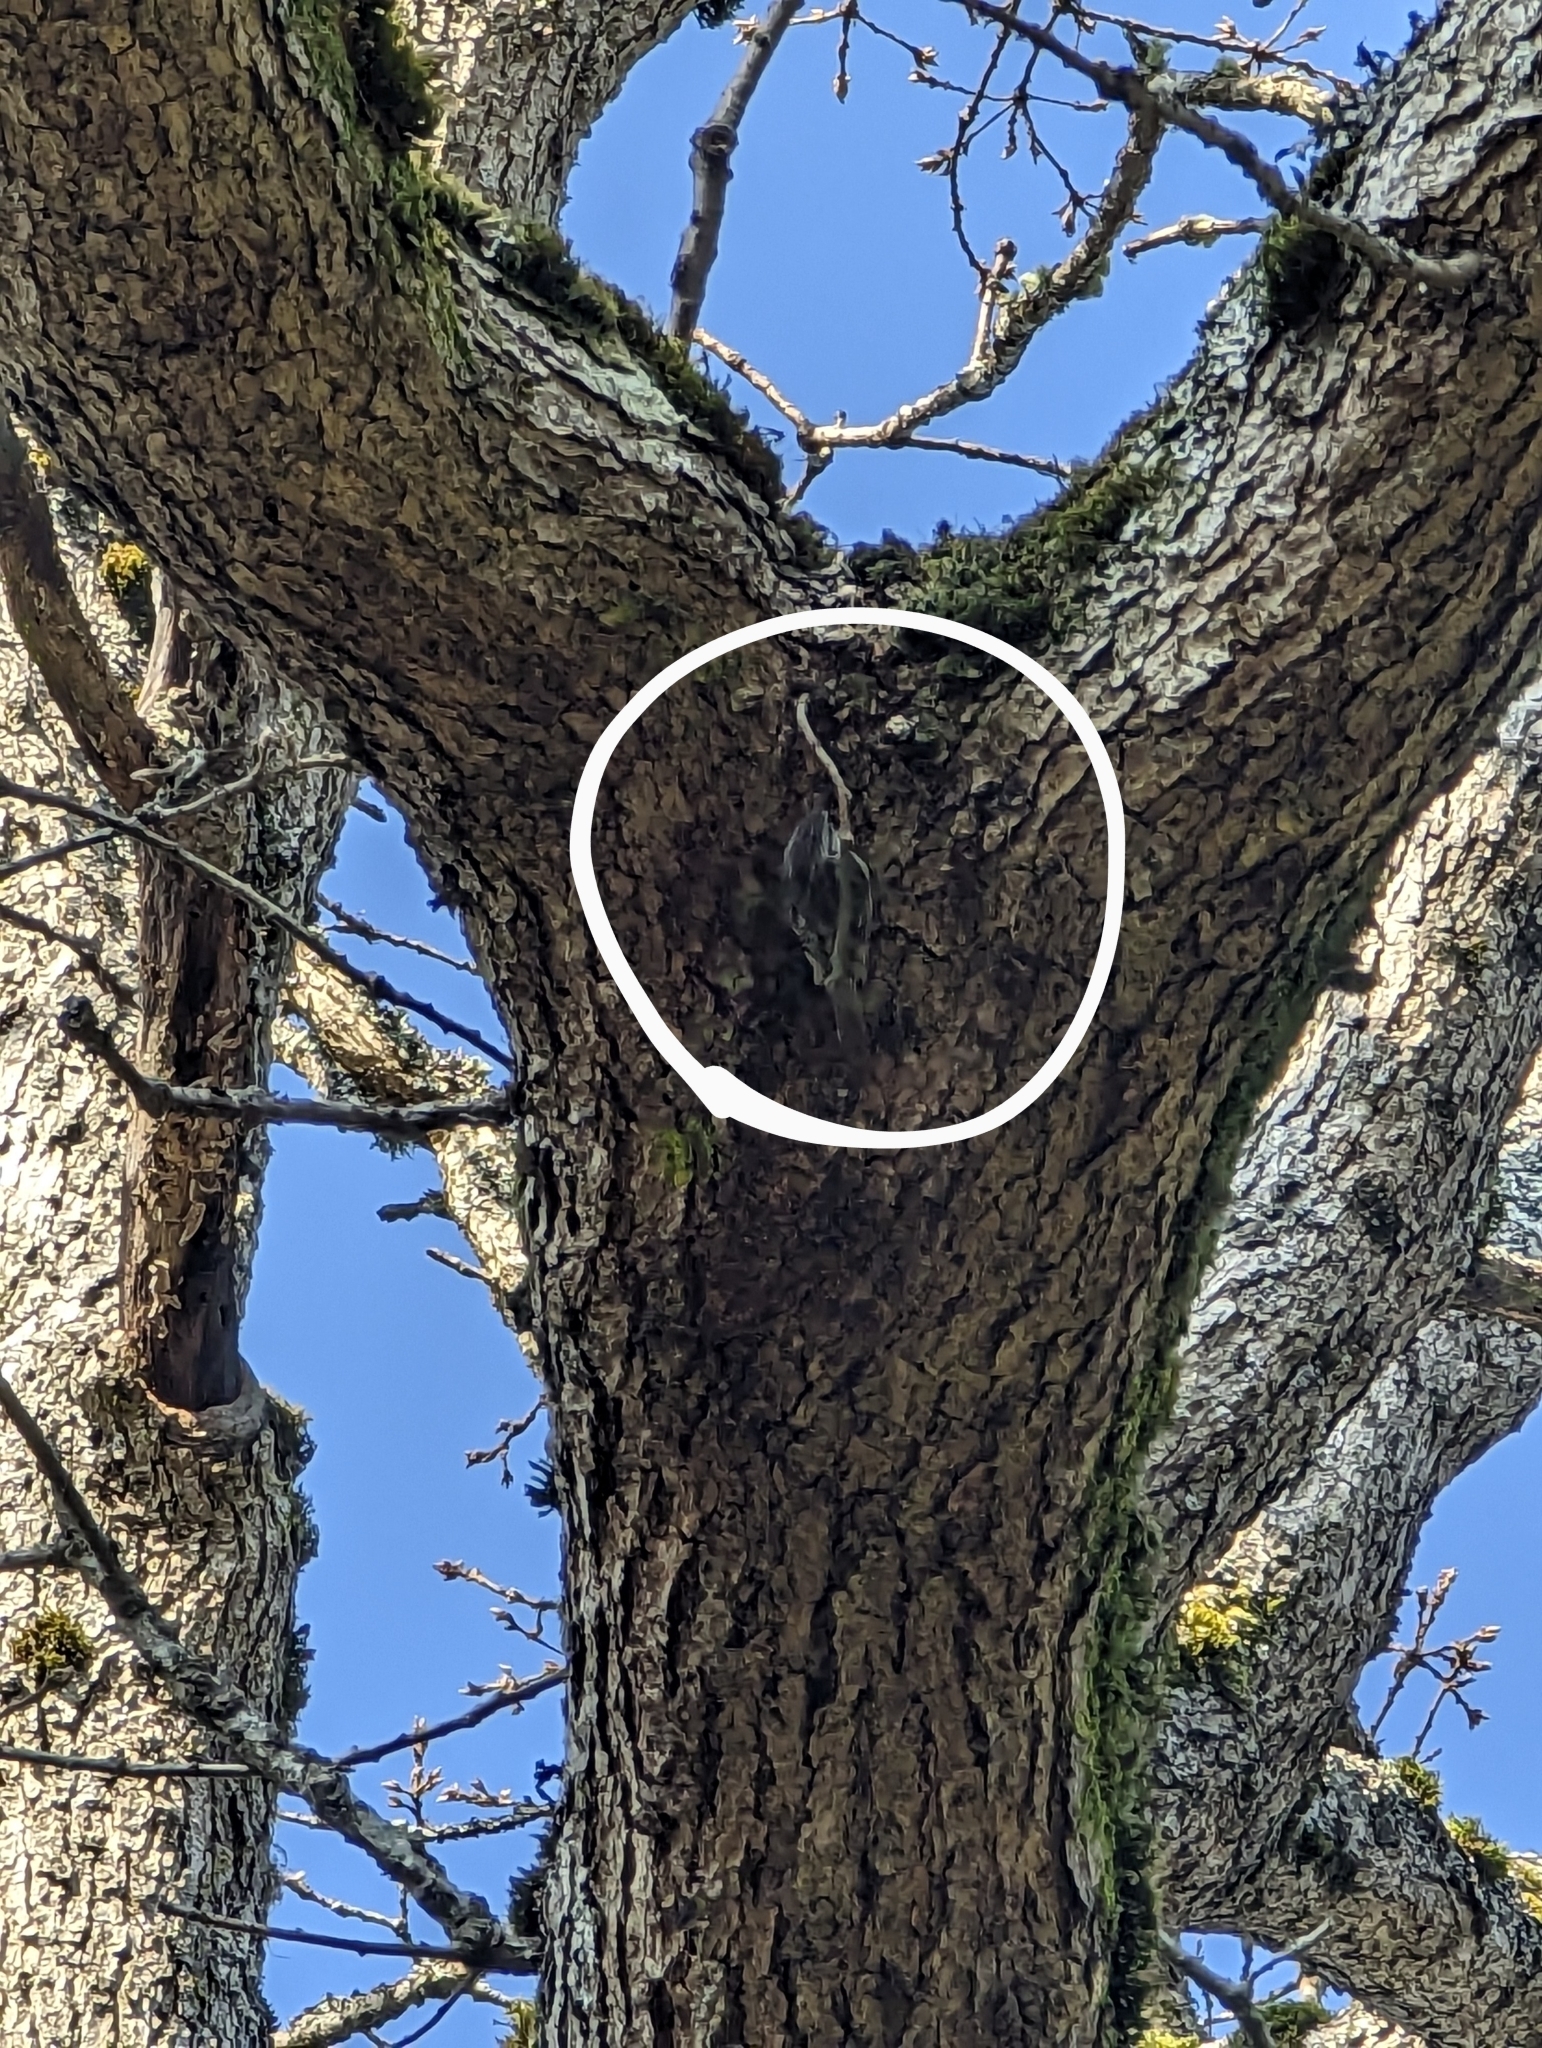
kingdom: Animalia
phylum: Chordata
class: Aves
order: Passeriformes
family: Certhiidae
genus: Certhia
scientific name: Certhia americana
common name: Brown creeper
